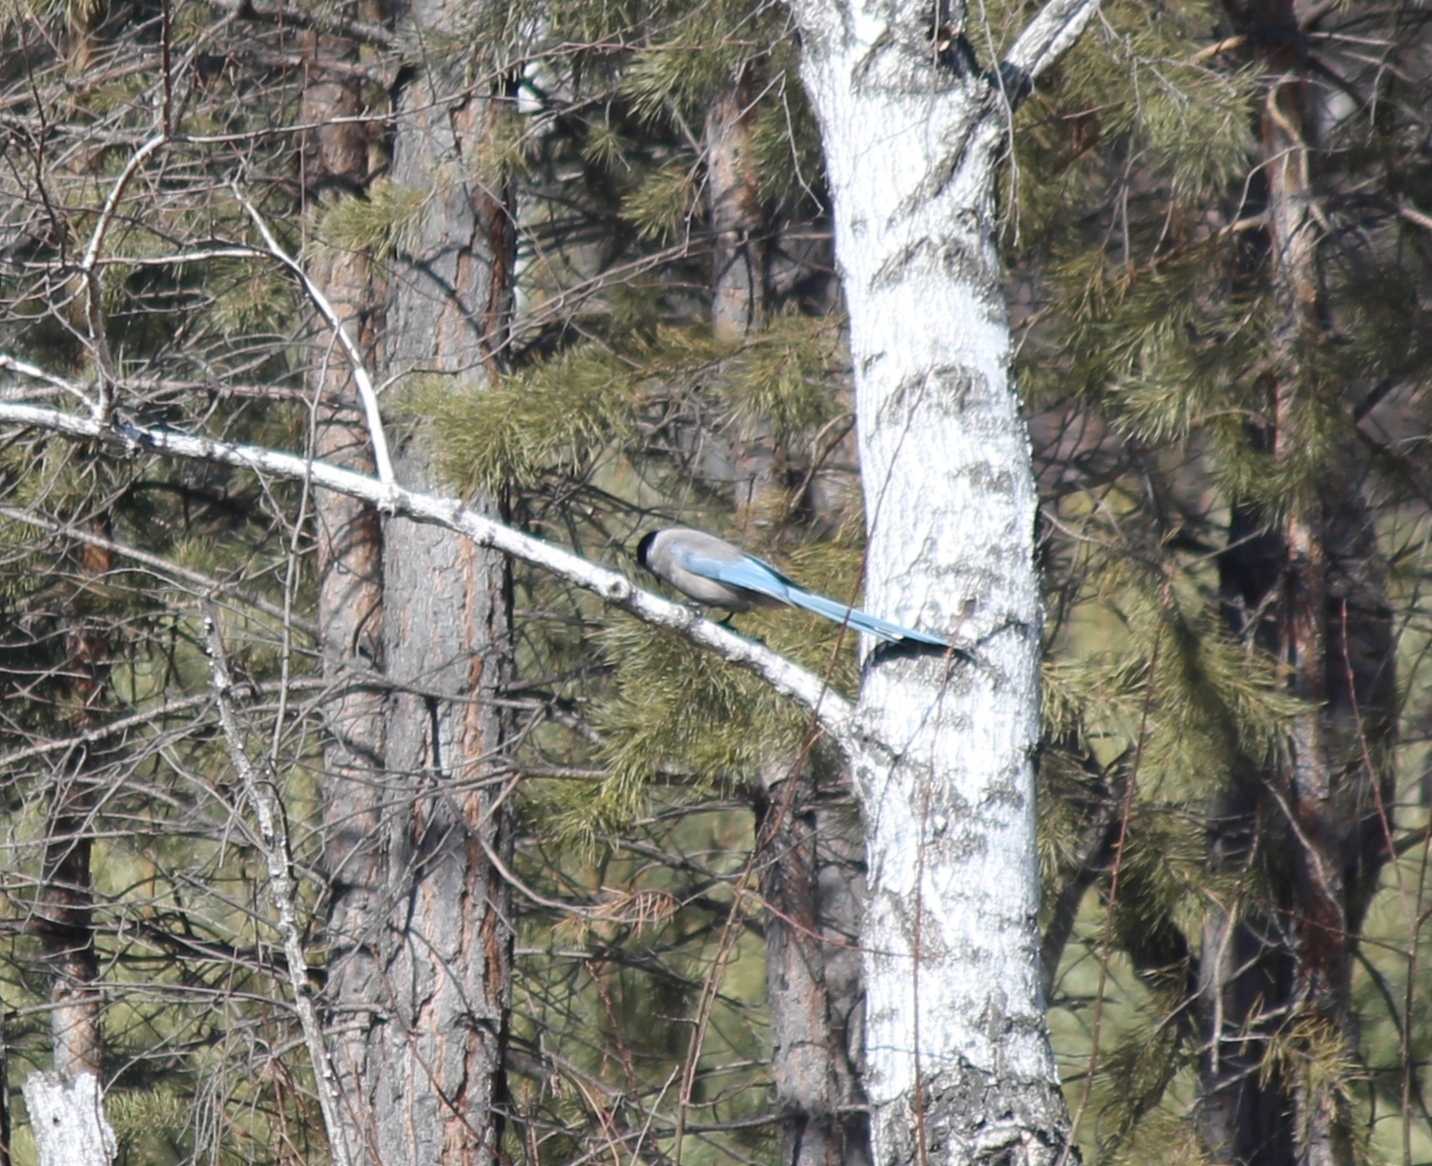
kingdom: Animalia
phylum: Chordata
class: Aves
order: Passeriformes
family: Corvidae
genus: Cyanopica
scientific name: Cyanopica cyanus
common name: Azure-winged magpie
